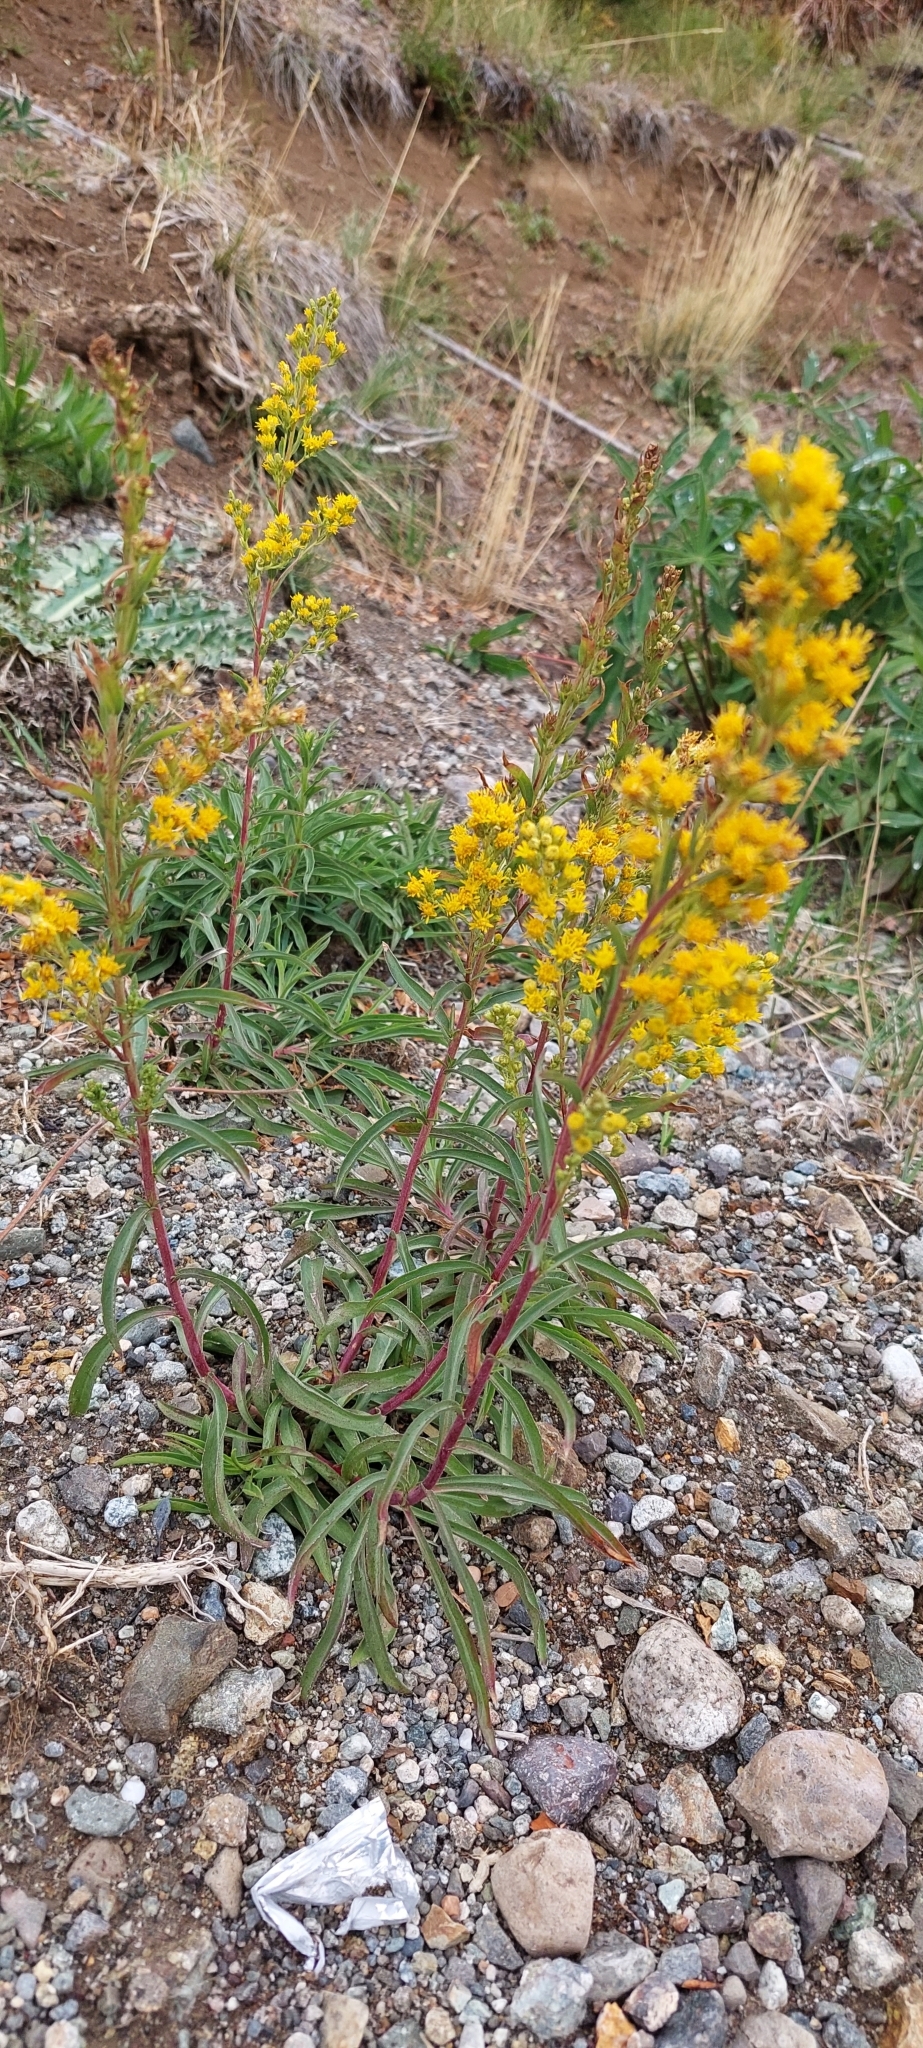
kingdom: Plantae
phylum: Tracheophyta
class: Magnoliopsida
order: Asterales
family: Asteraceae
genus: Solidago
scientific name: Solidago chilensis
